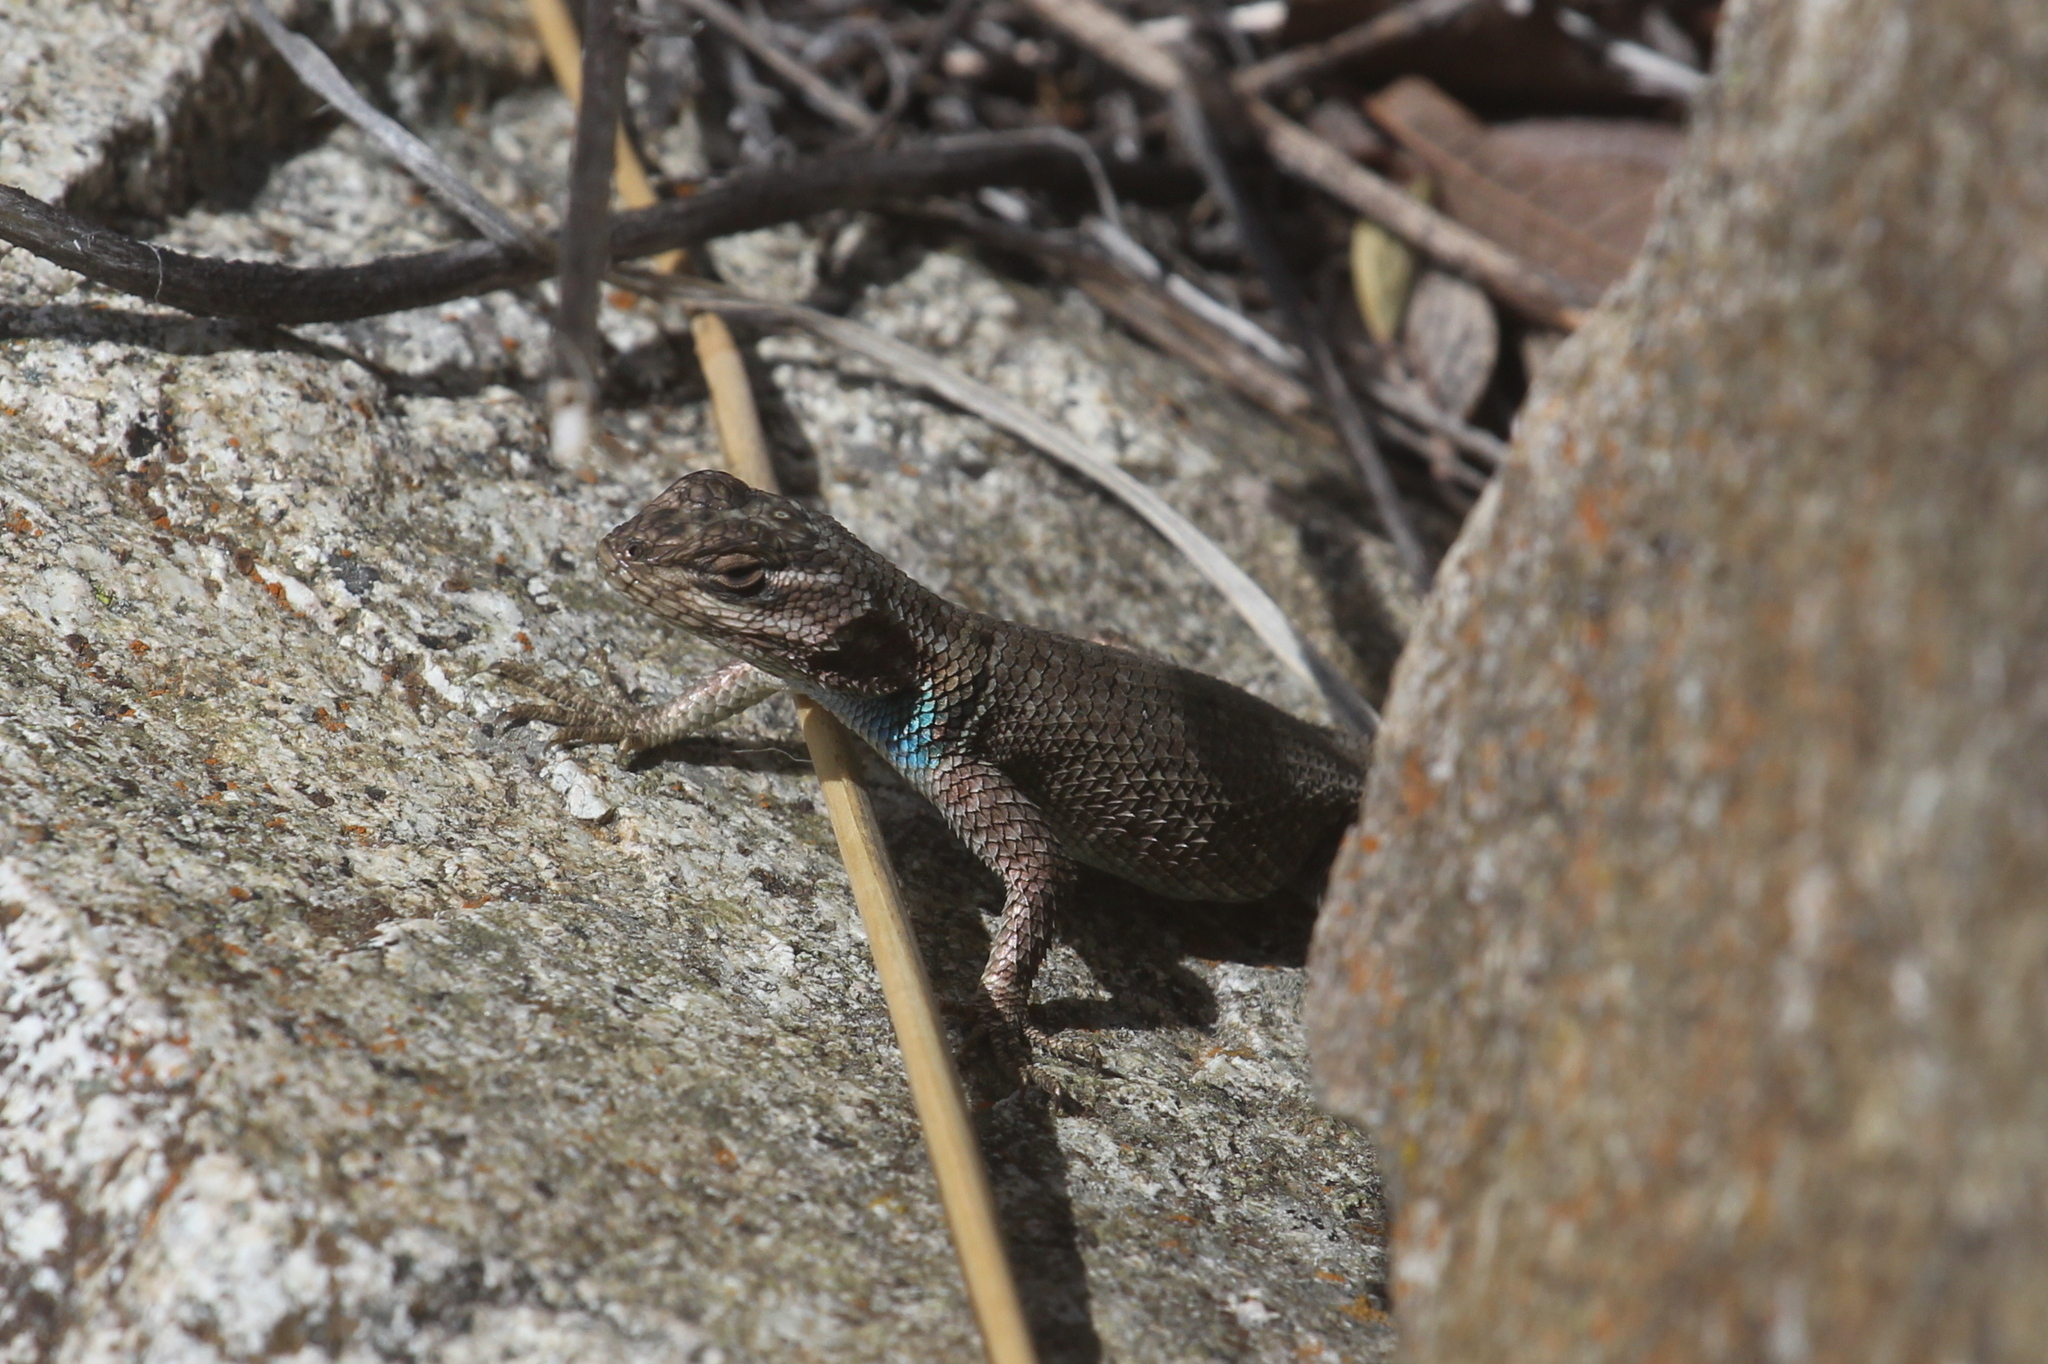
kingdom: Animalia
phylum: Chordata
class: Squamata
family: Phrynosomatidae
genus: Sceloporus
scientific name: Sceloporus jarrovii
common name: Yarrow's spiny lizard
